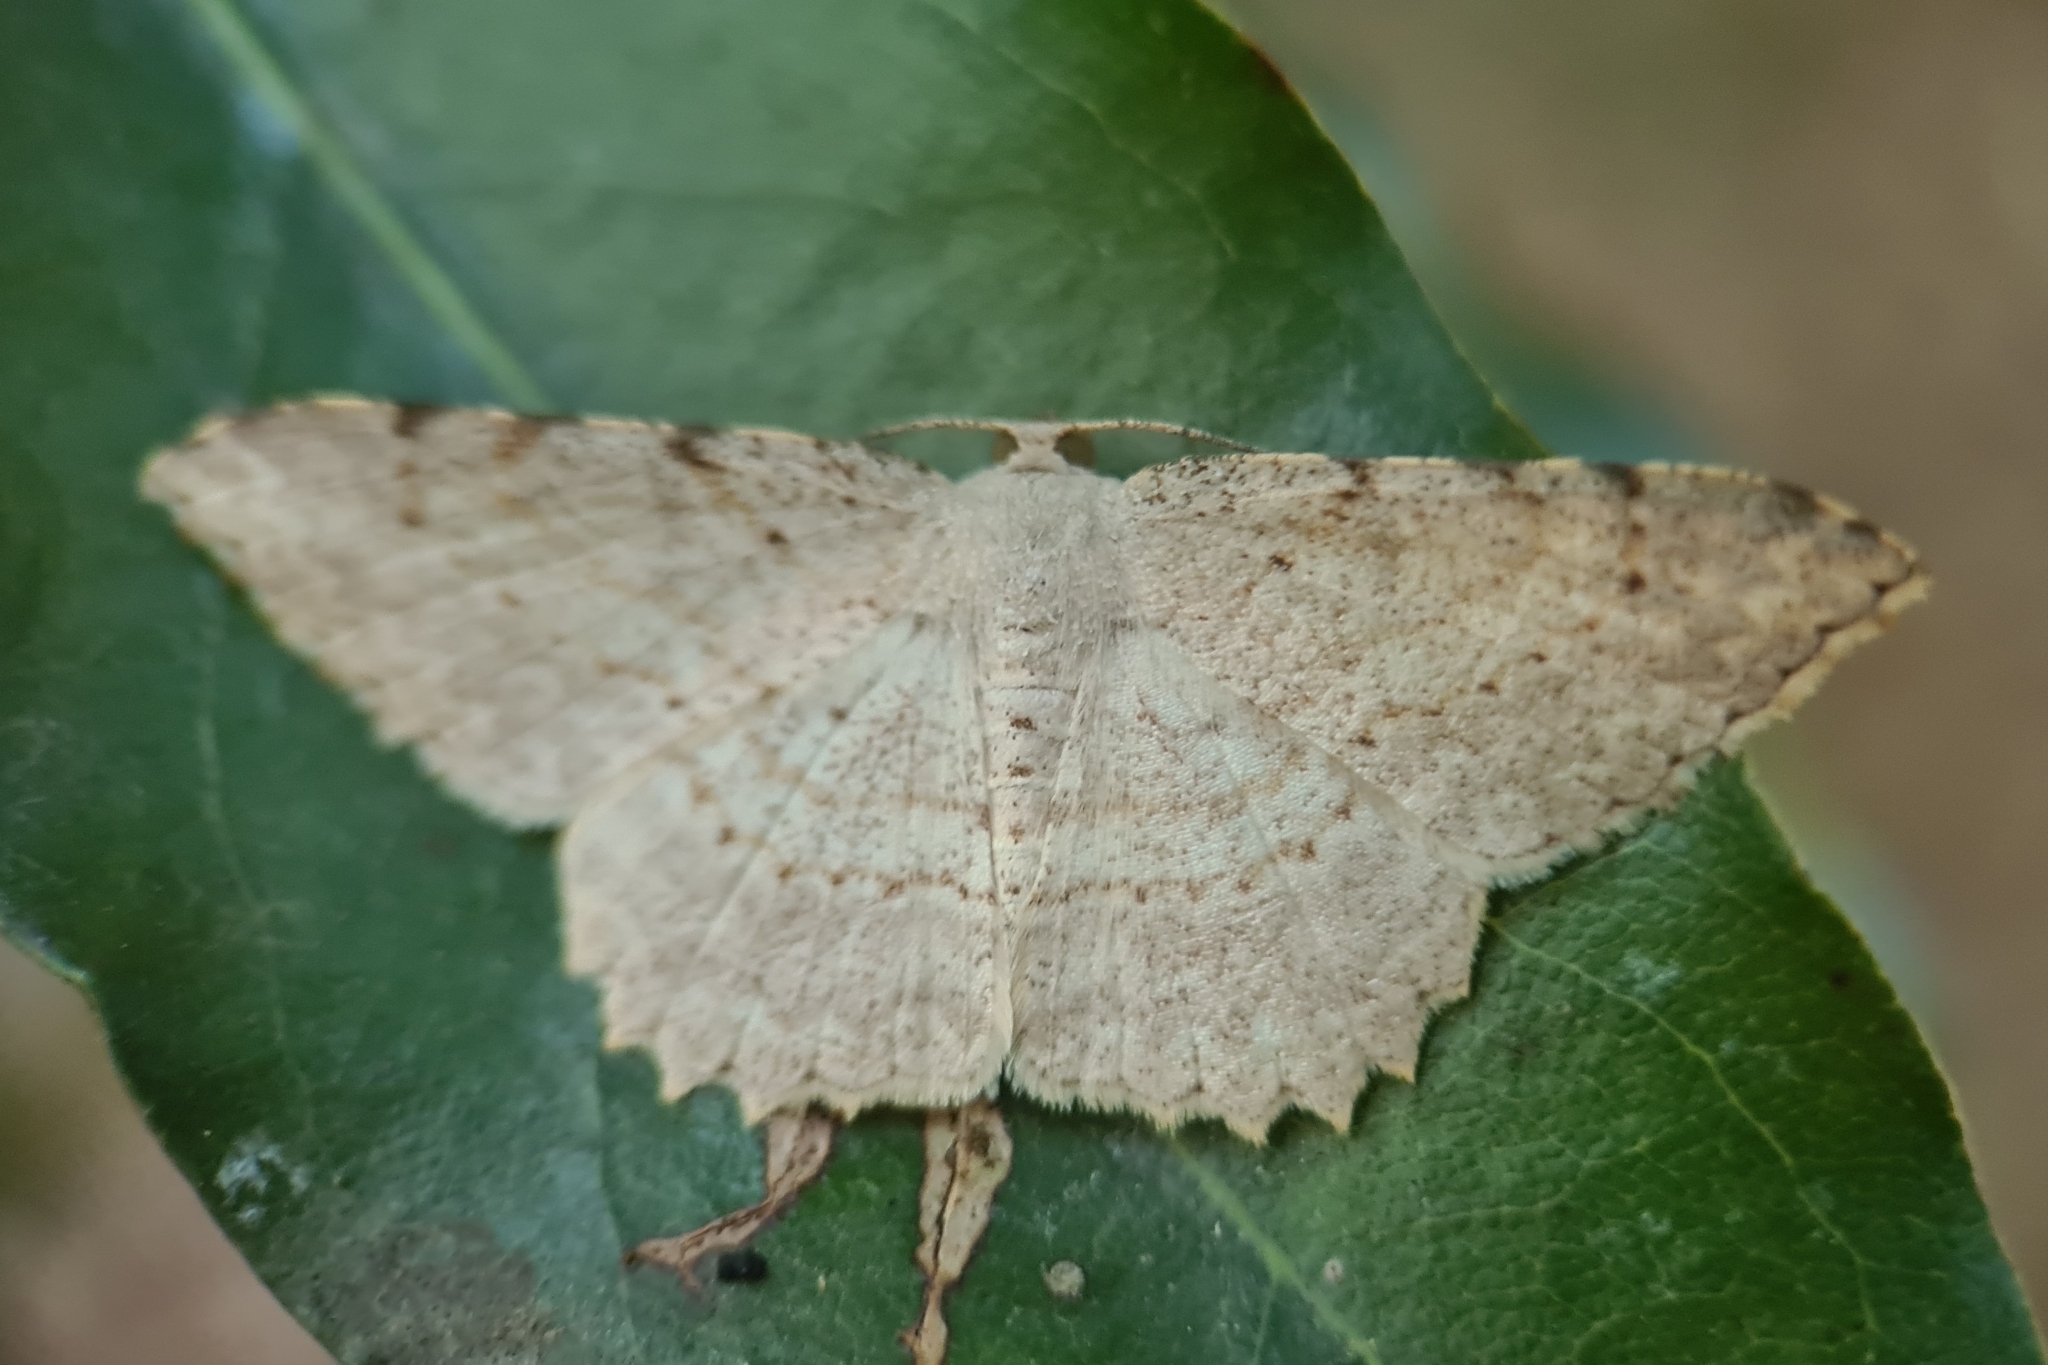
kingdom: Animalia
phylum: Arthropoda
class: Insecta
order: Lepidoptera
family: Geometridae
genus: Luxiaria
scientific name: Luxiaria ochrophara
